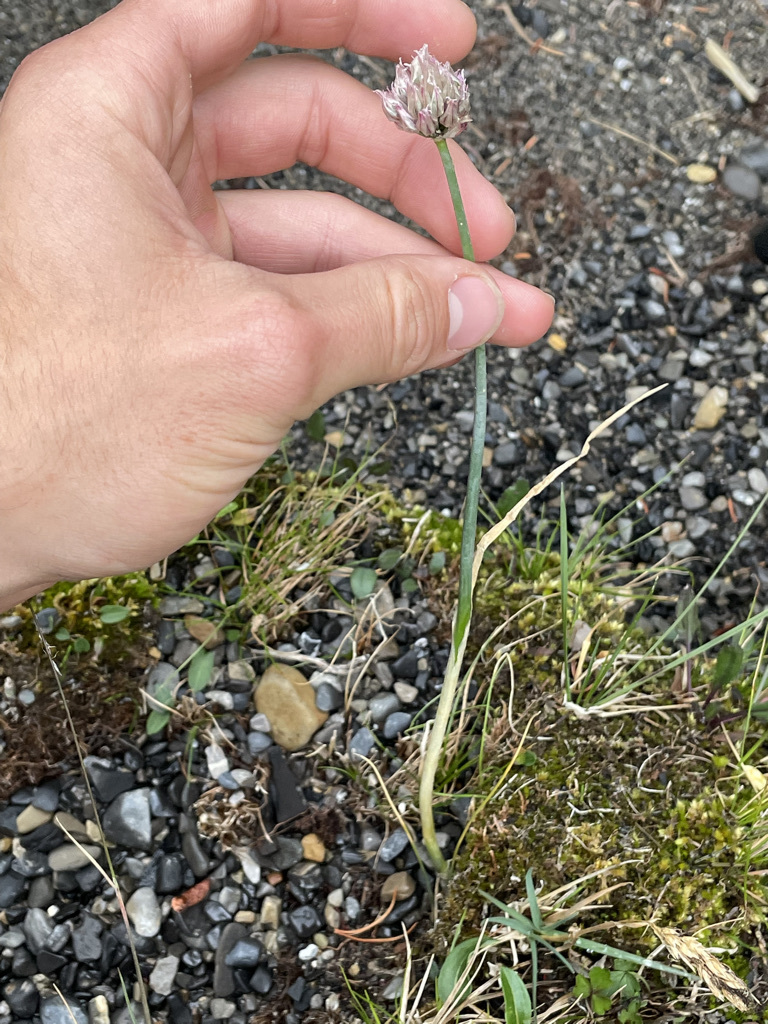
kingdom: Plantae
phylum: Tracheophyta
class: Liliopsida
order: Asparagales
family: Amaryllidaceae
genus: Allium
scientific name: Allium schoenoprasum
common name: Chives
